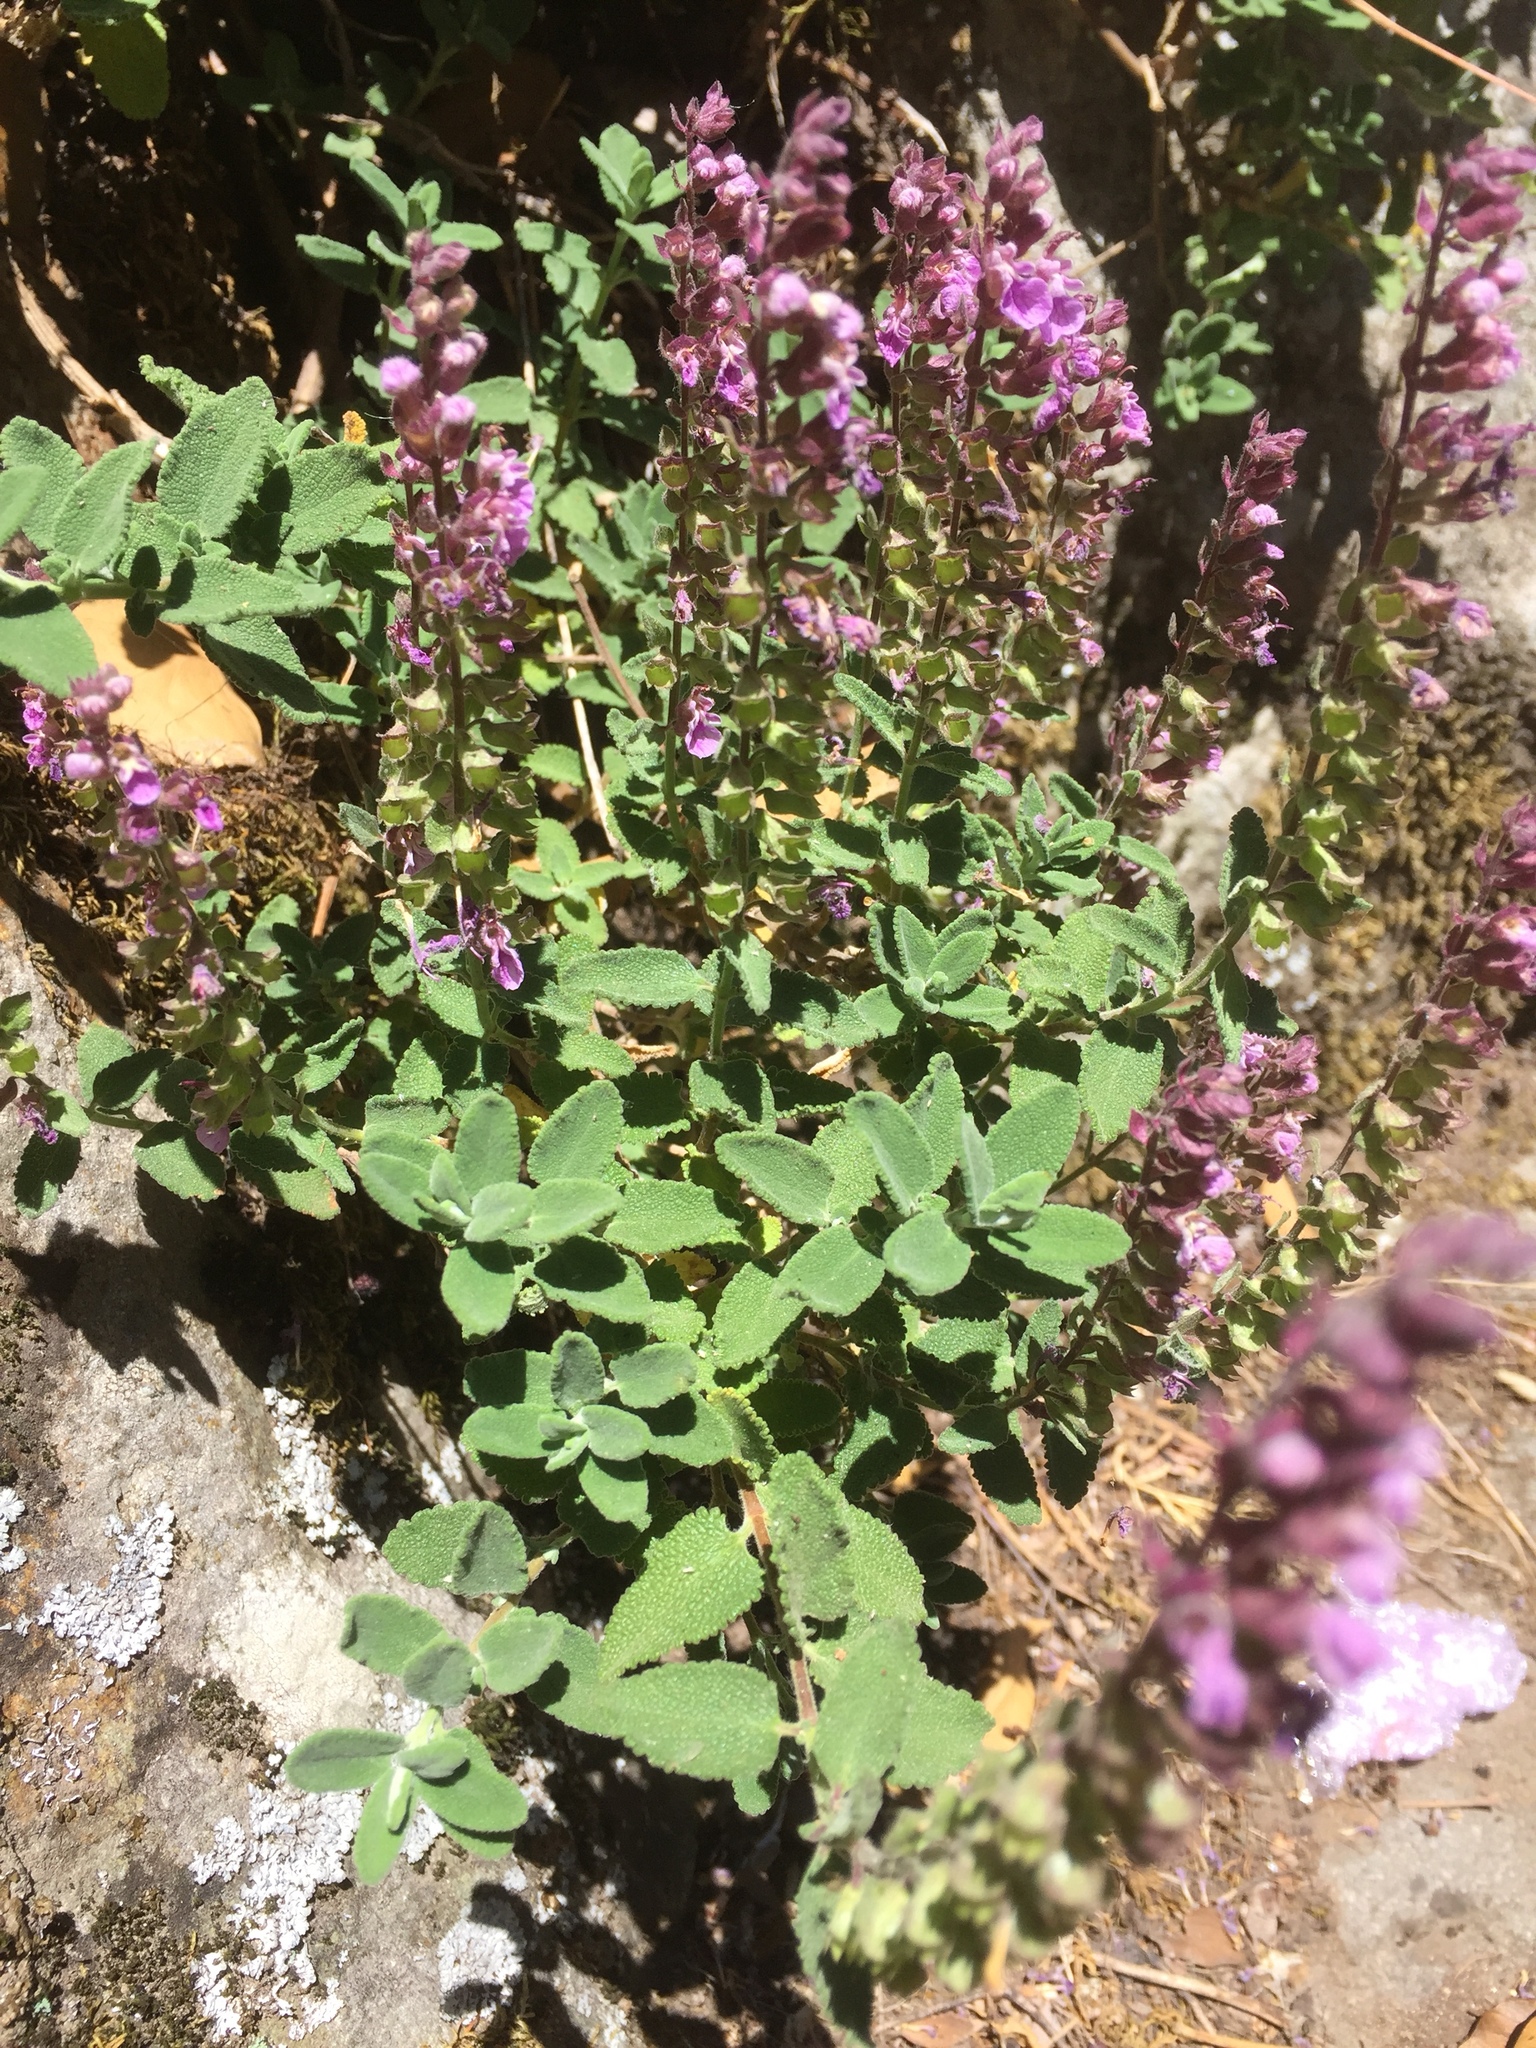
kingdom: Plantae
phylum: Tracheophyta
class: Magnoliopsida
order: Lamiales
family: Lamiaceae
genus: Teucrium
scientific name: Teucrium salviastrum
